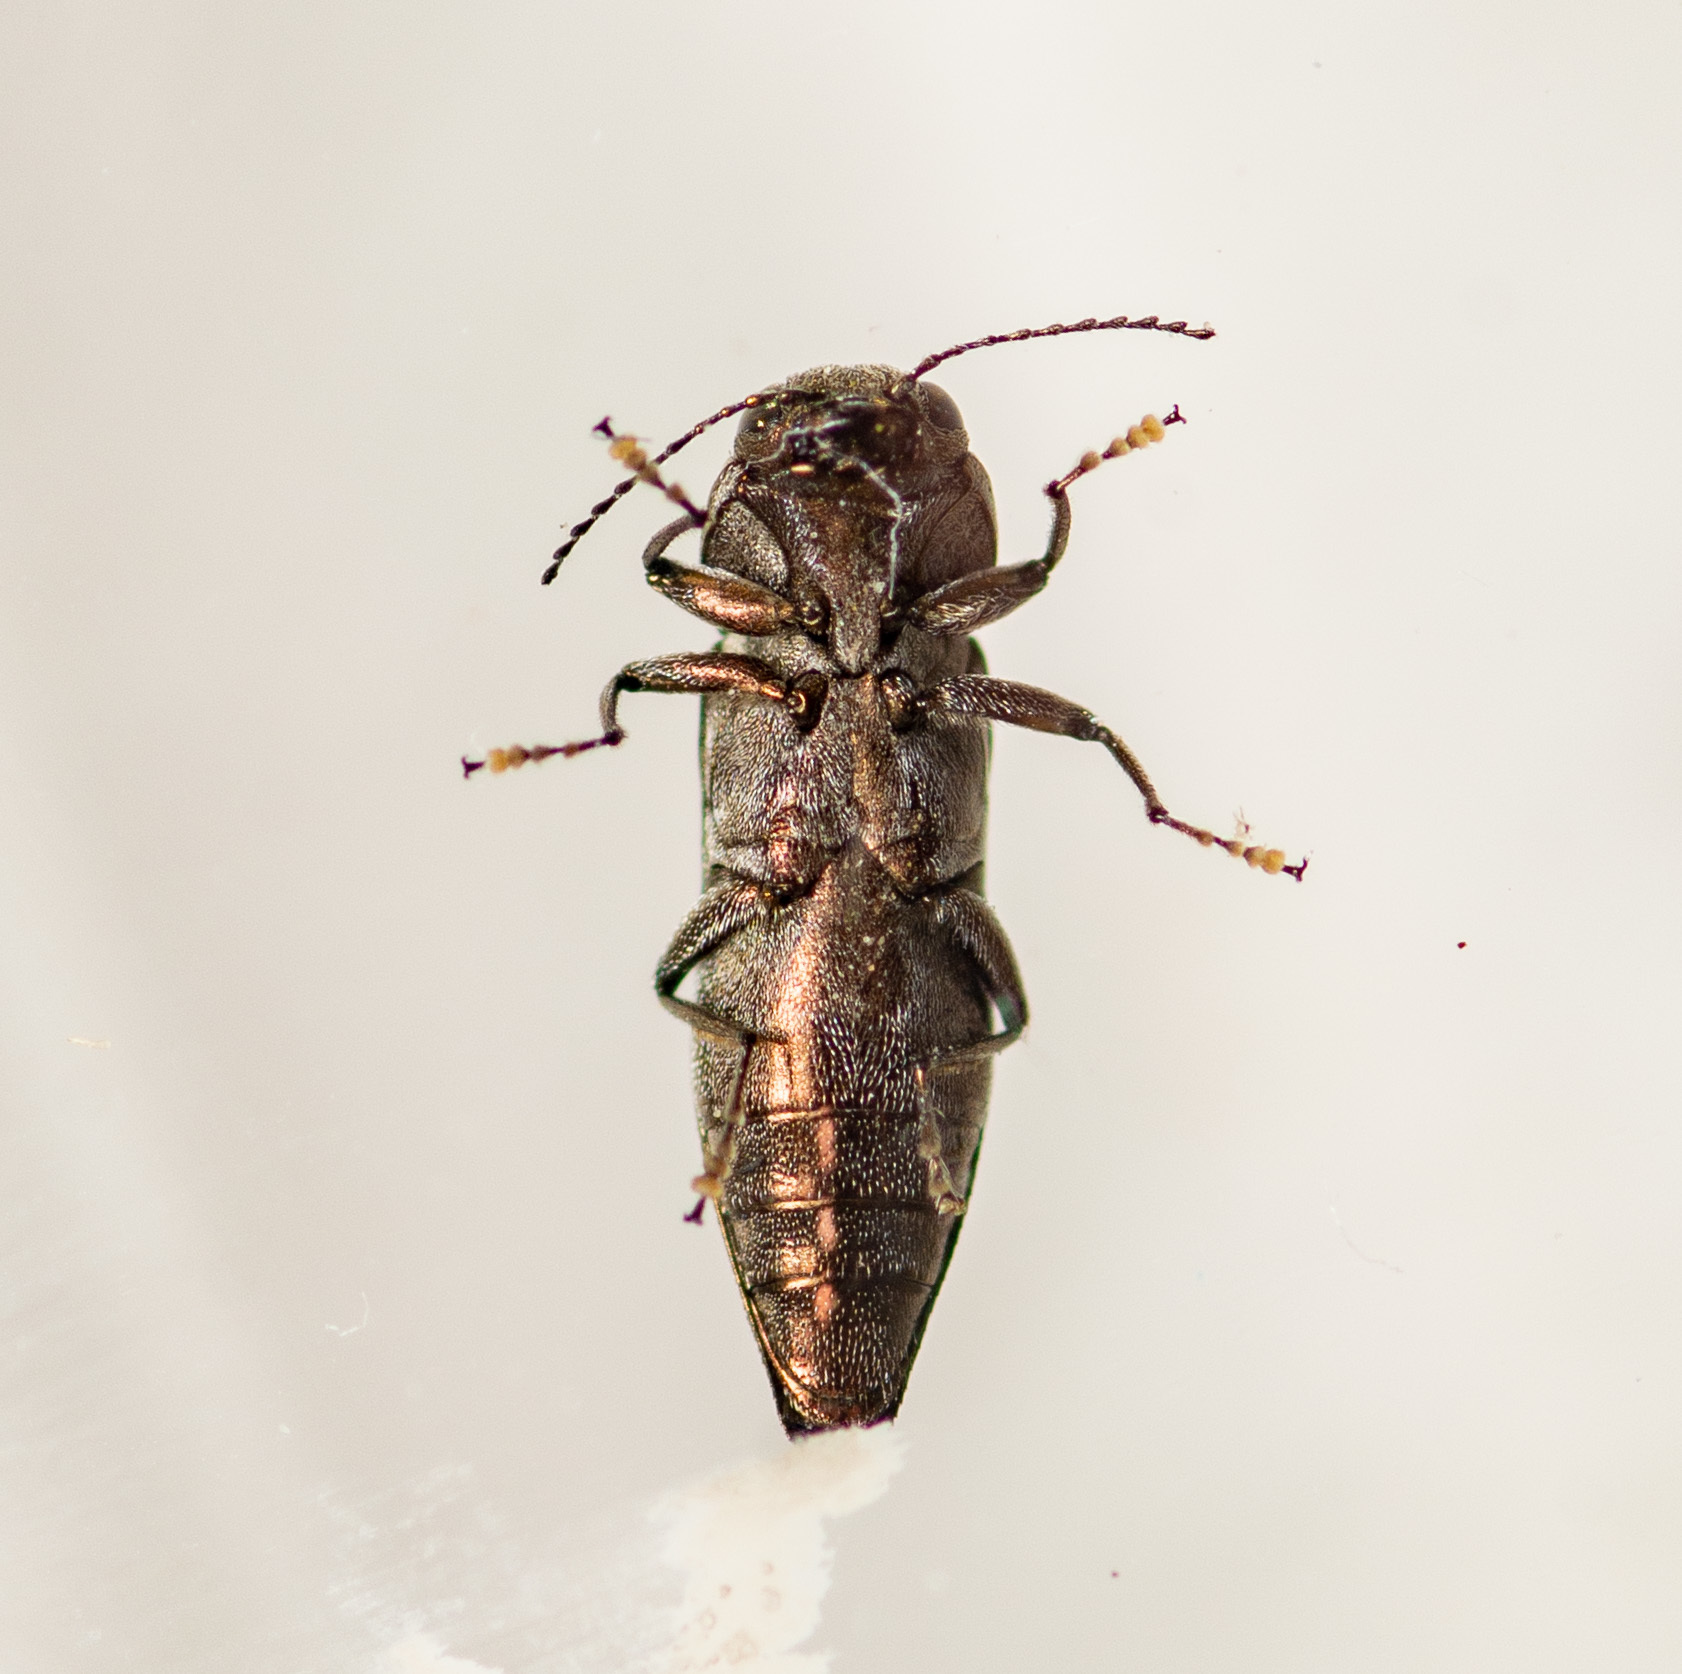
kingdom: Animalia
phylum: Arthropoda
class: Insecta
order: Coleoptera
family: Buprestidae
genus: Agrilus
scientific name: Agrilus lecontei
